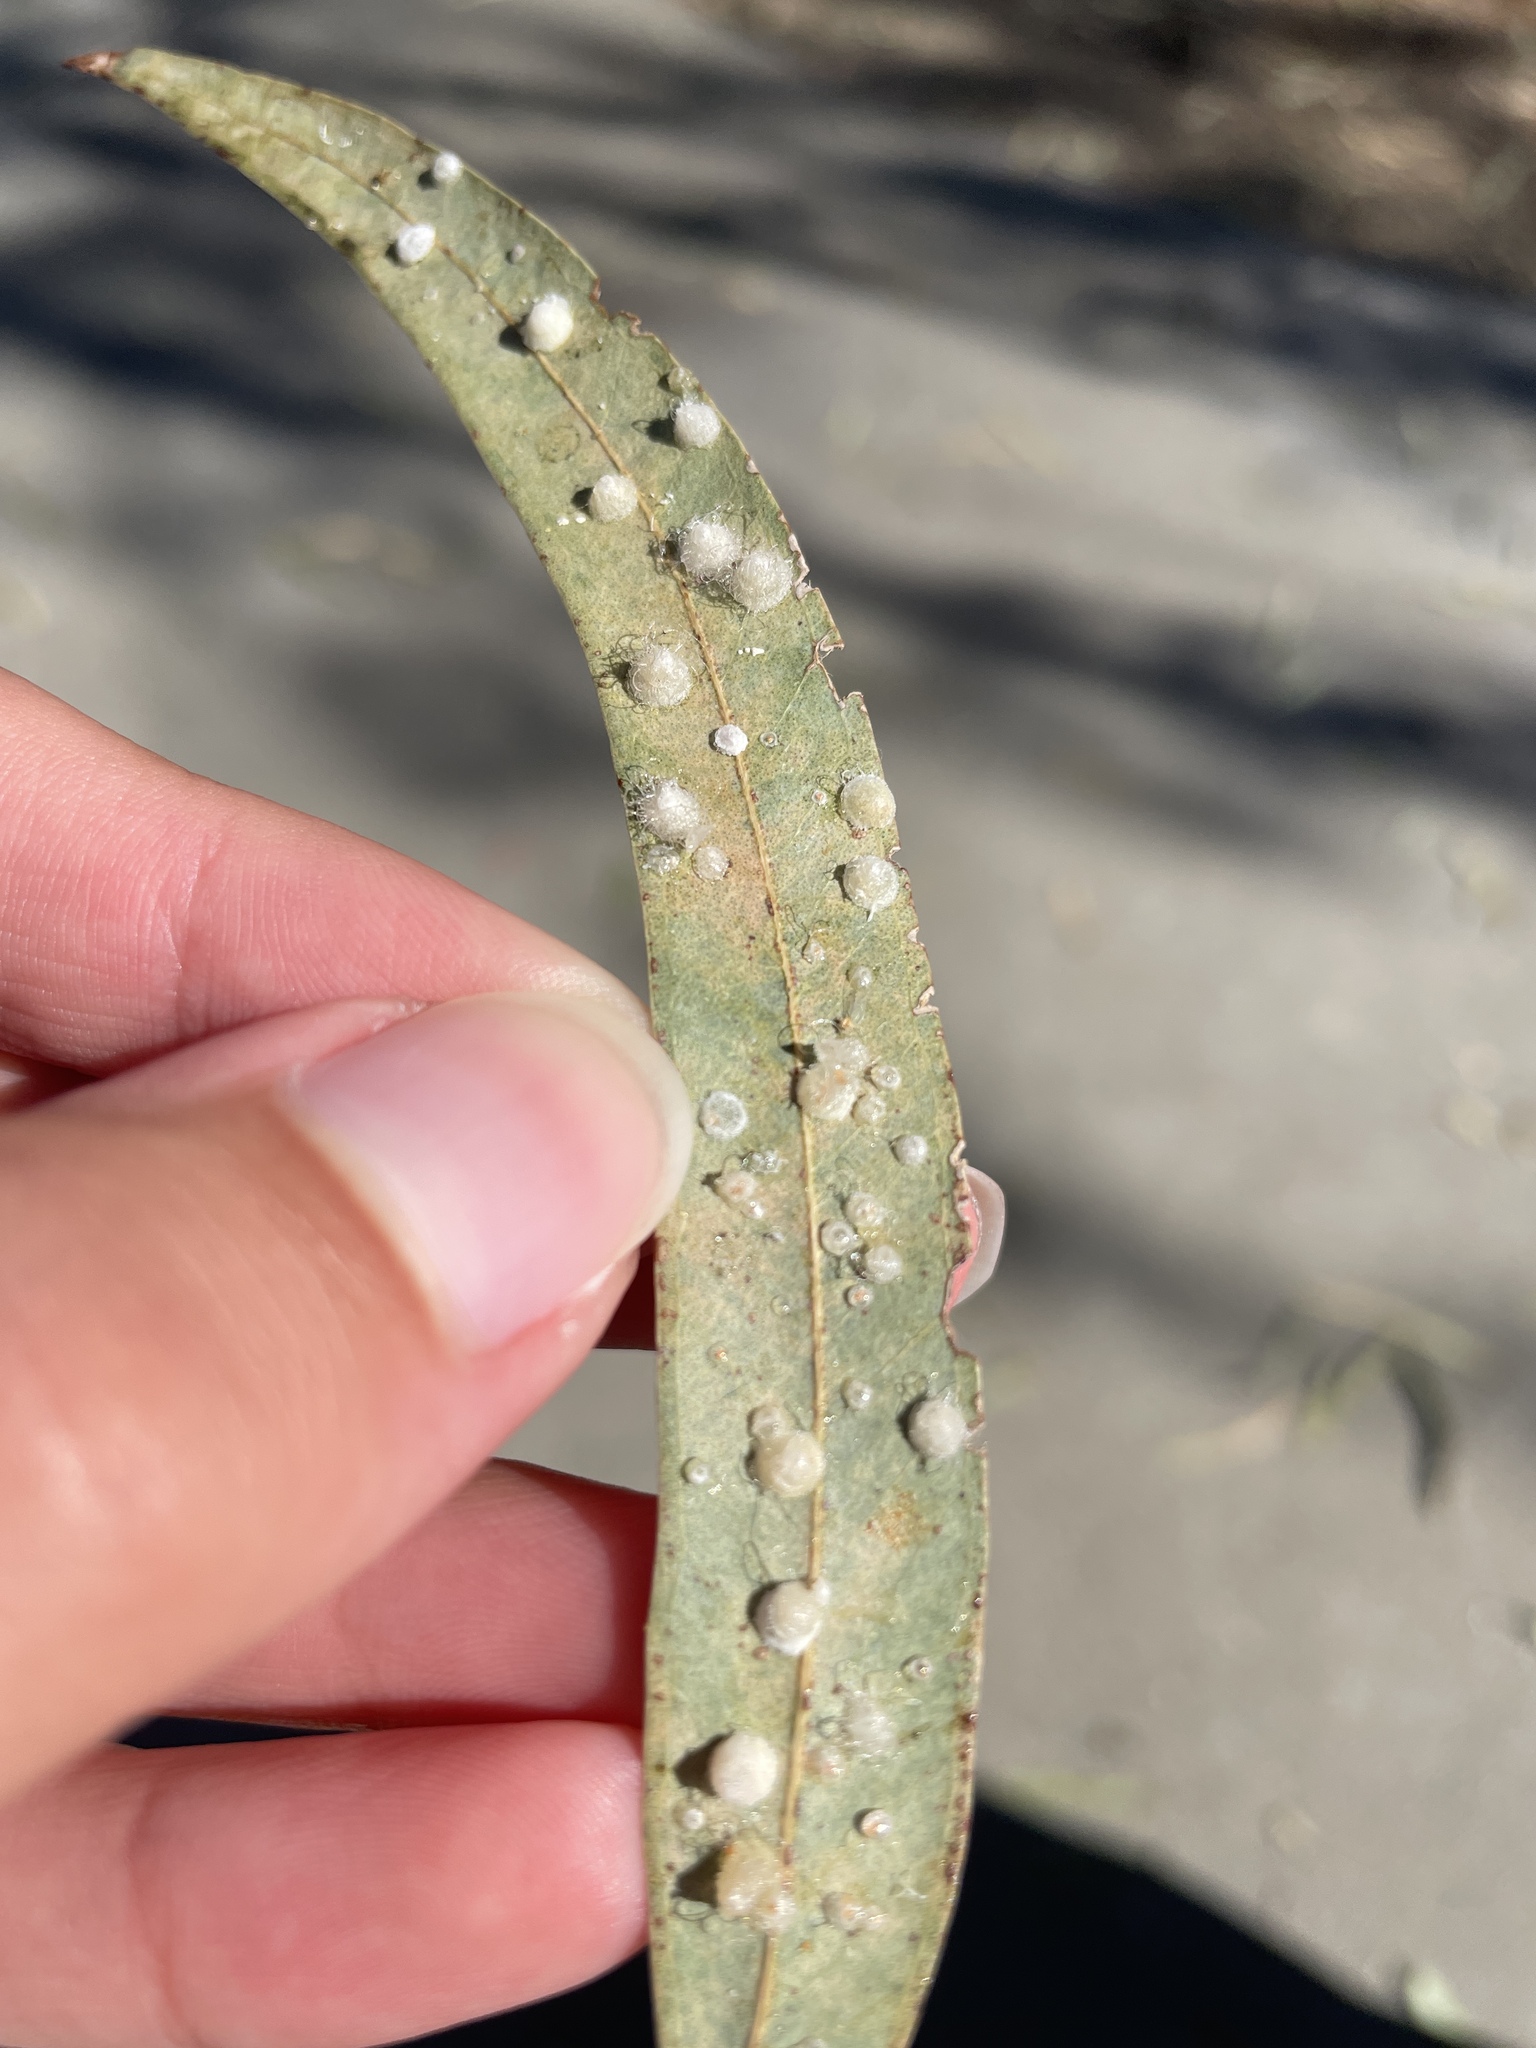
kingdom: Animalia
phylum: Arthropoda
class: Insecta
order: Hemiptera
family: Aphalaridae
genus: Glycaspis
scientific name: Glycaspis brimblecombei
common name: Red gum lerp psyllid
